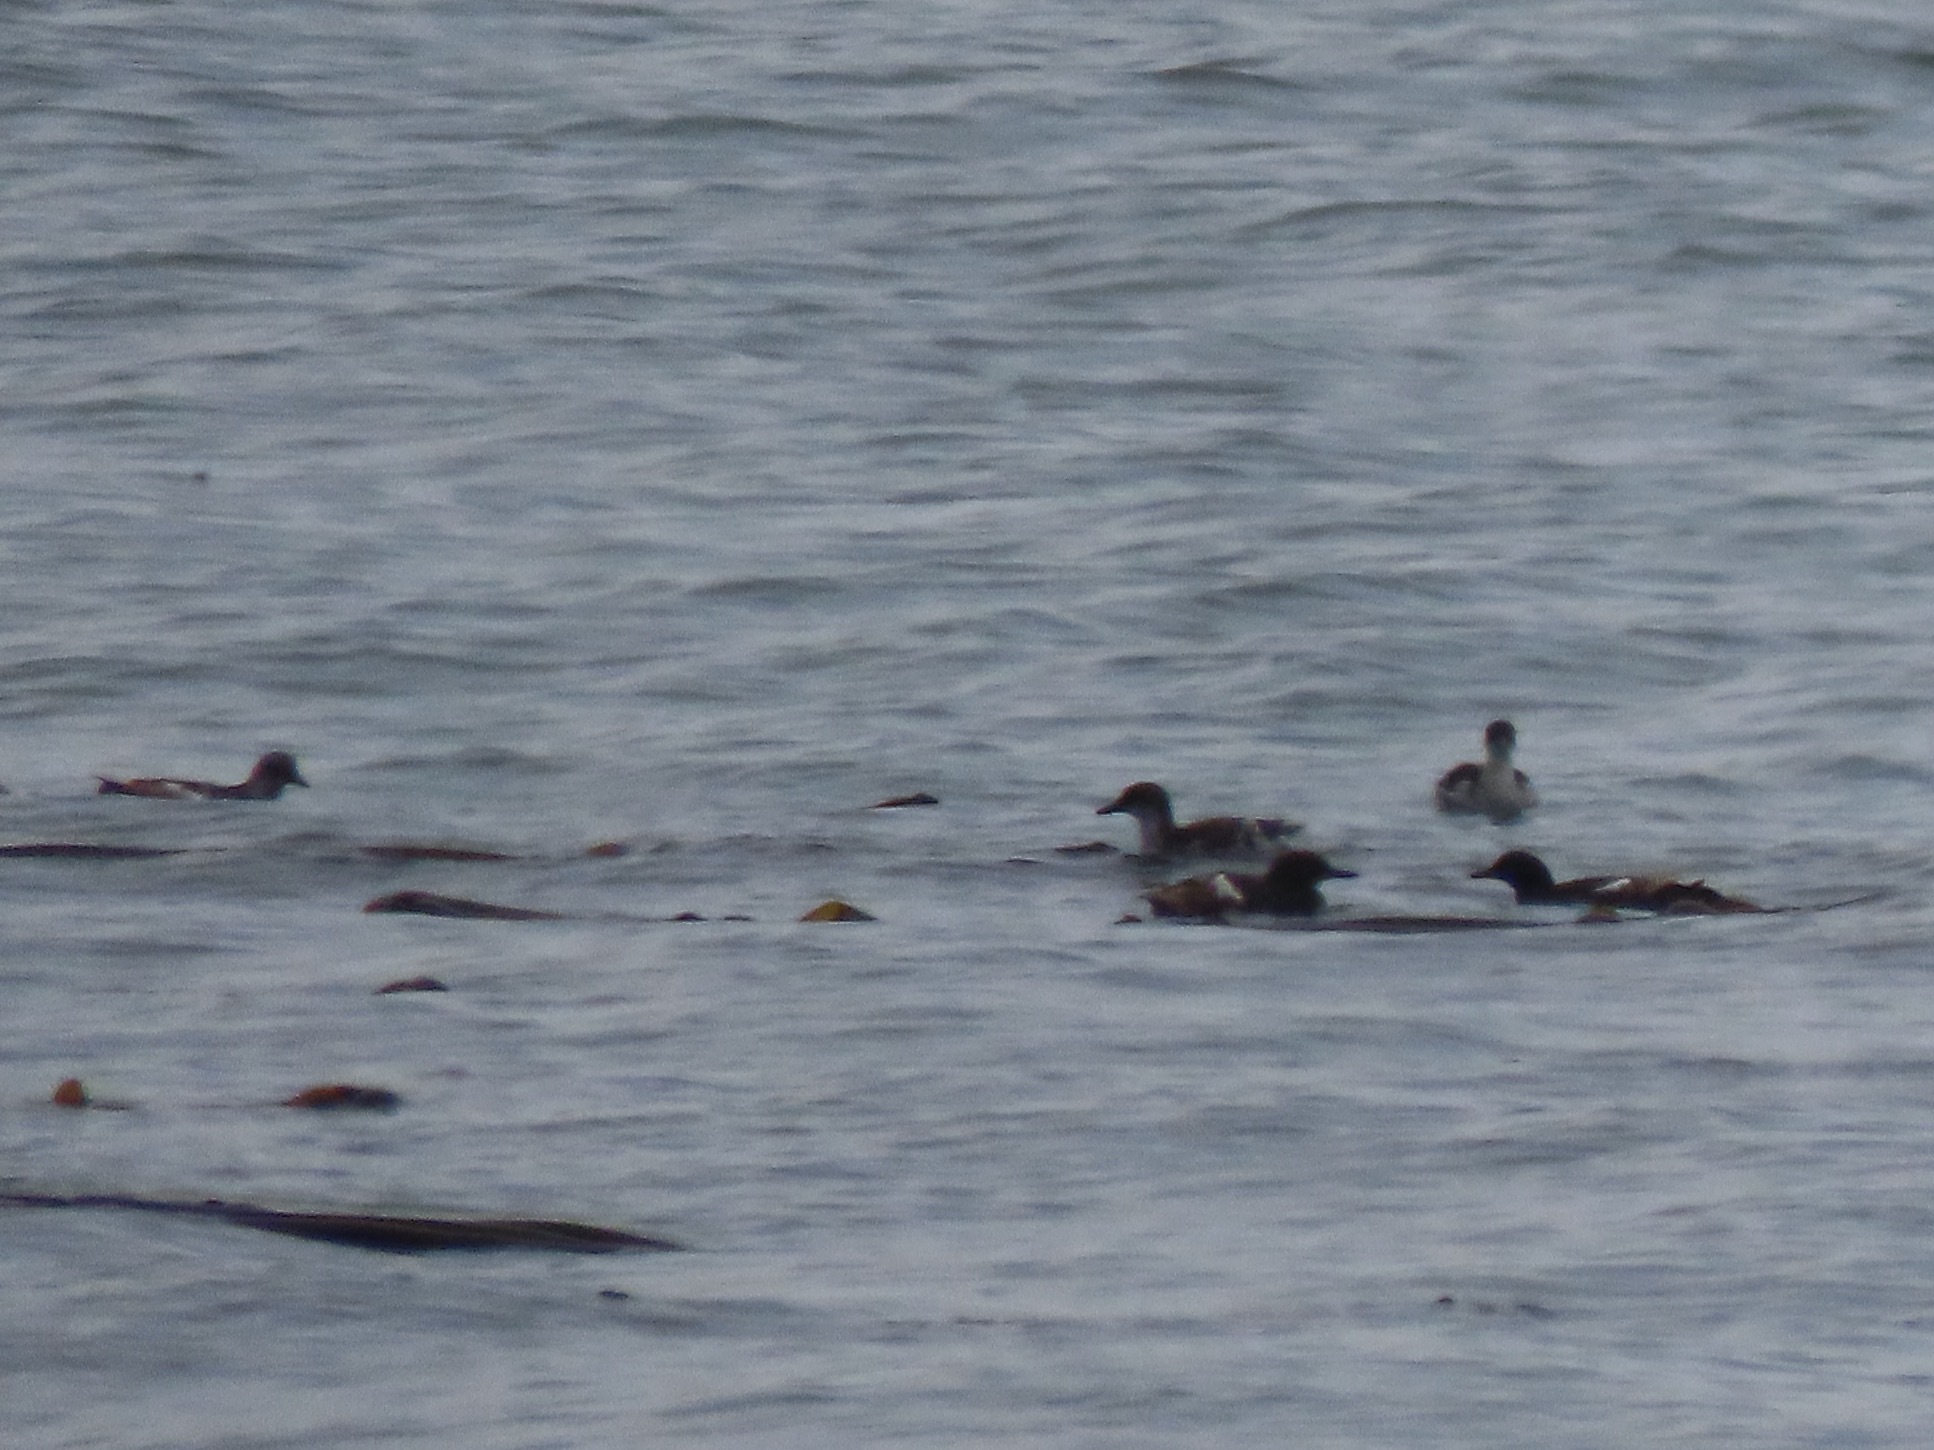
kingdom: Animalia
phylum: Chordata
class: Aves
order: Charadriiformes
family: Alcidae
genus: Cepphus
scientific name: Cepphus columba
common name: Pigeon guillemot
